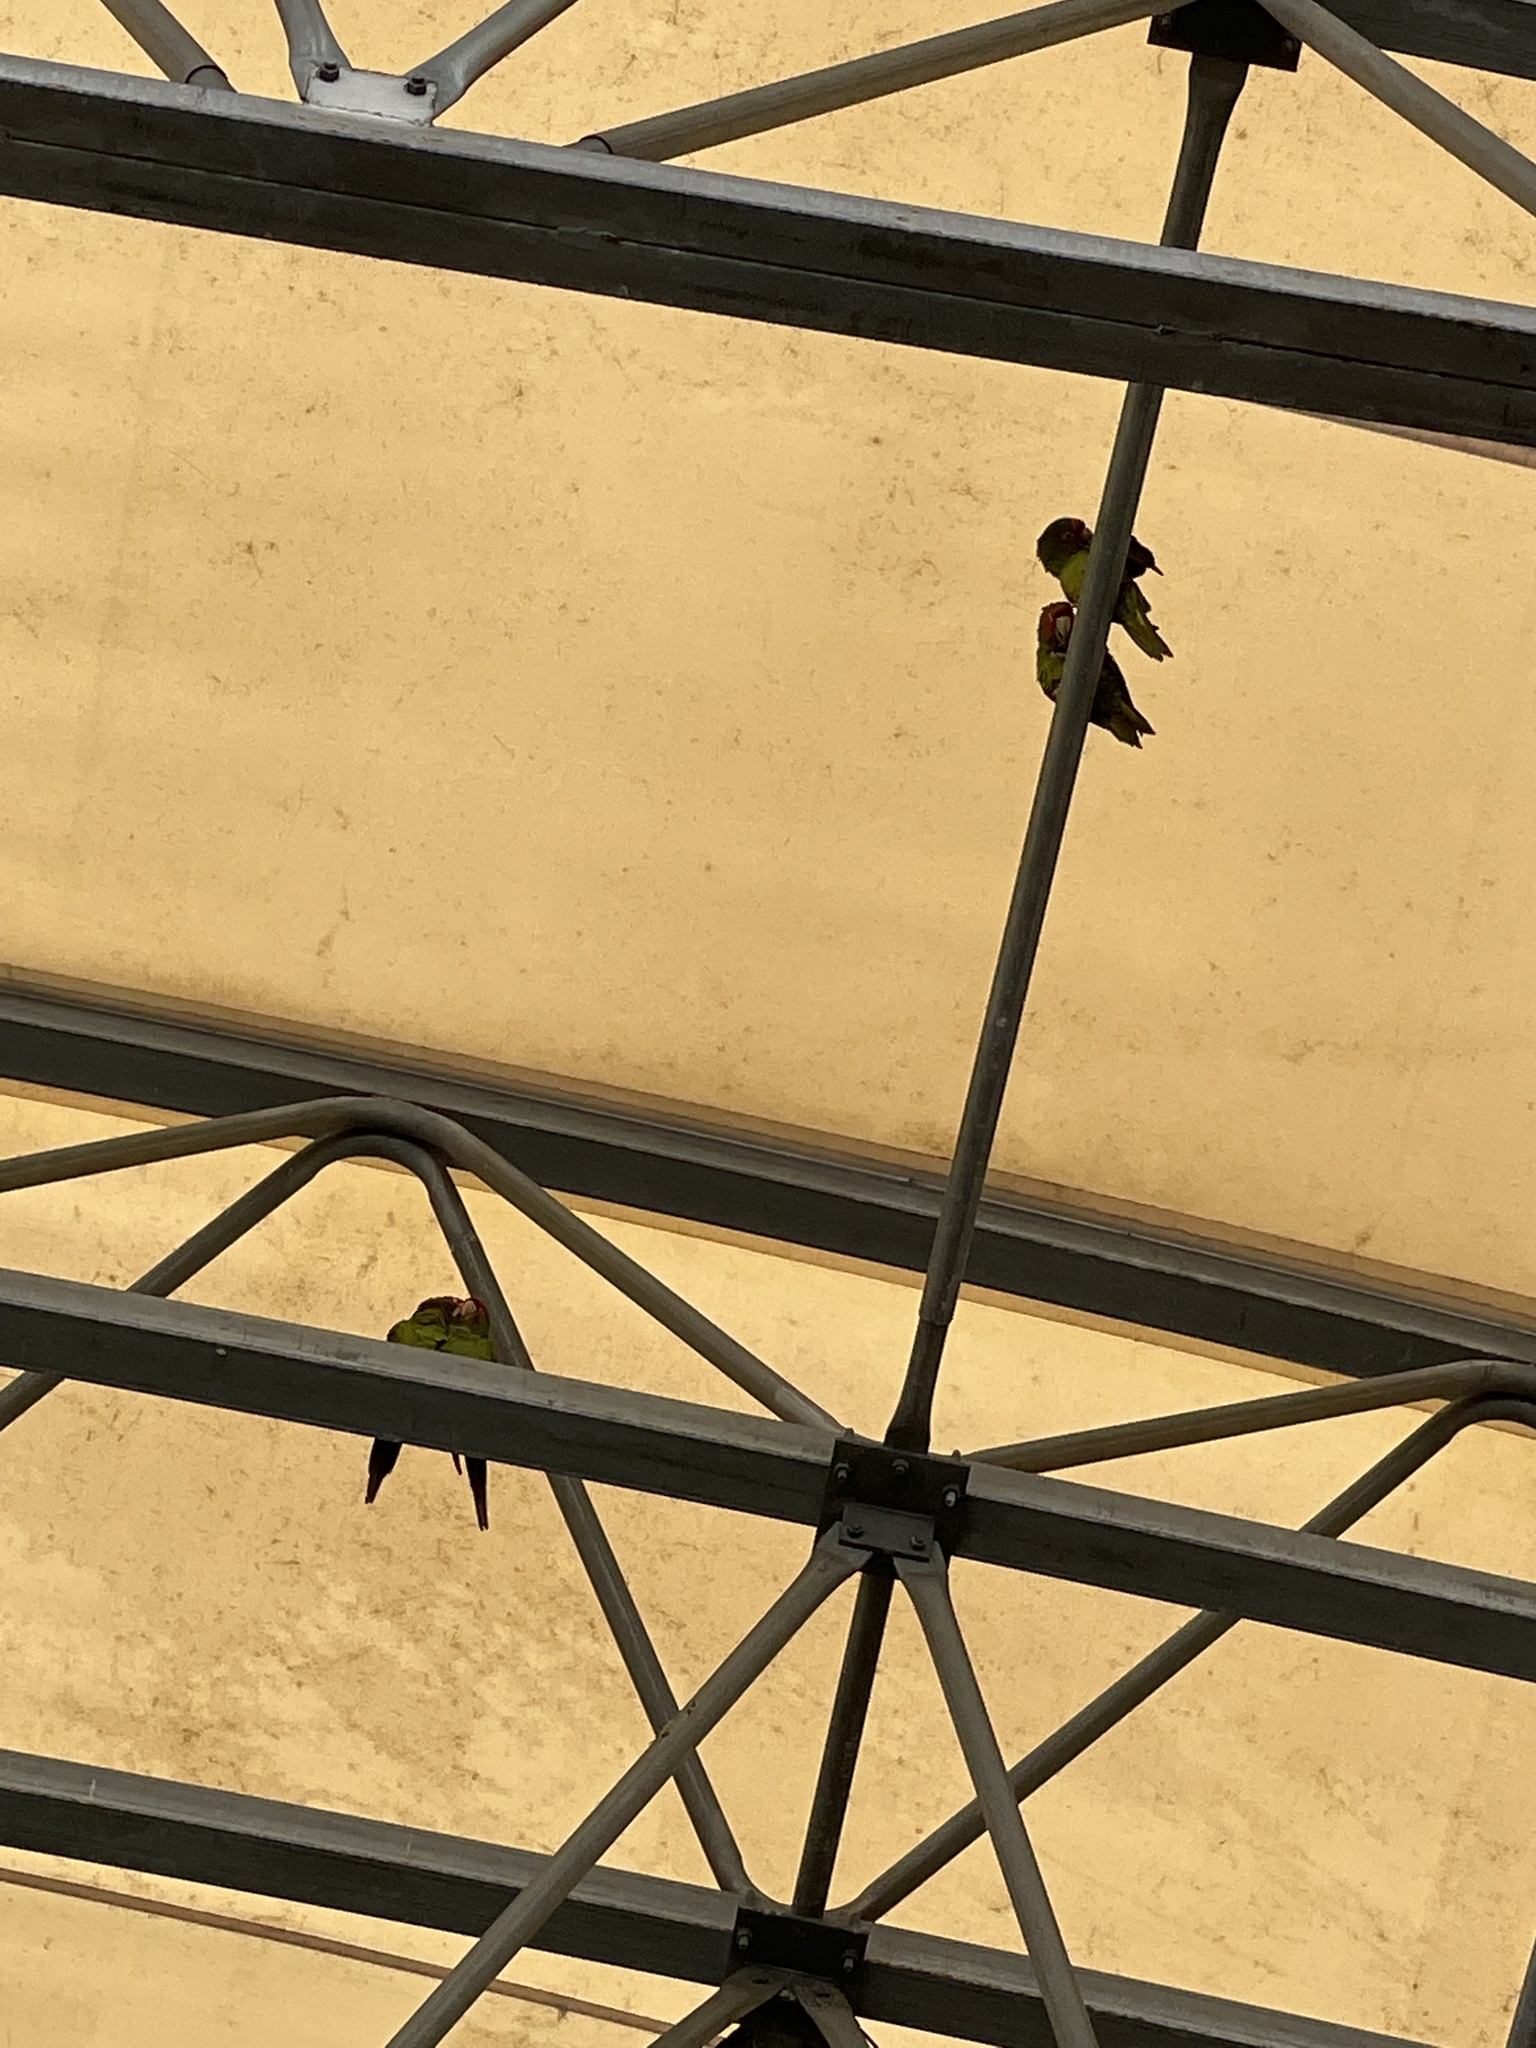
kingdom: Animalia
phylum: Chordata
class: Aves
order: Psittaciformes
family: Psittacidae
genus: Aratinga
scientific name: Aratinga mitrata
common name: Mitred parakeet
